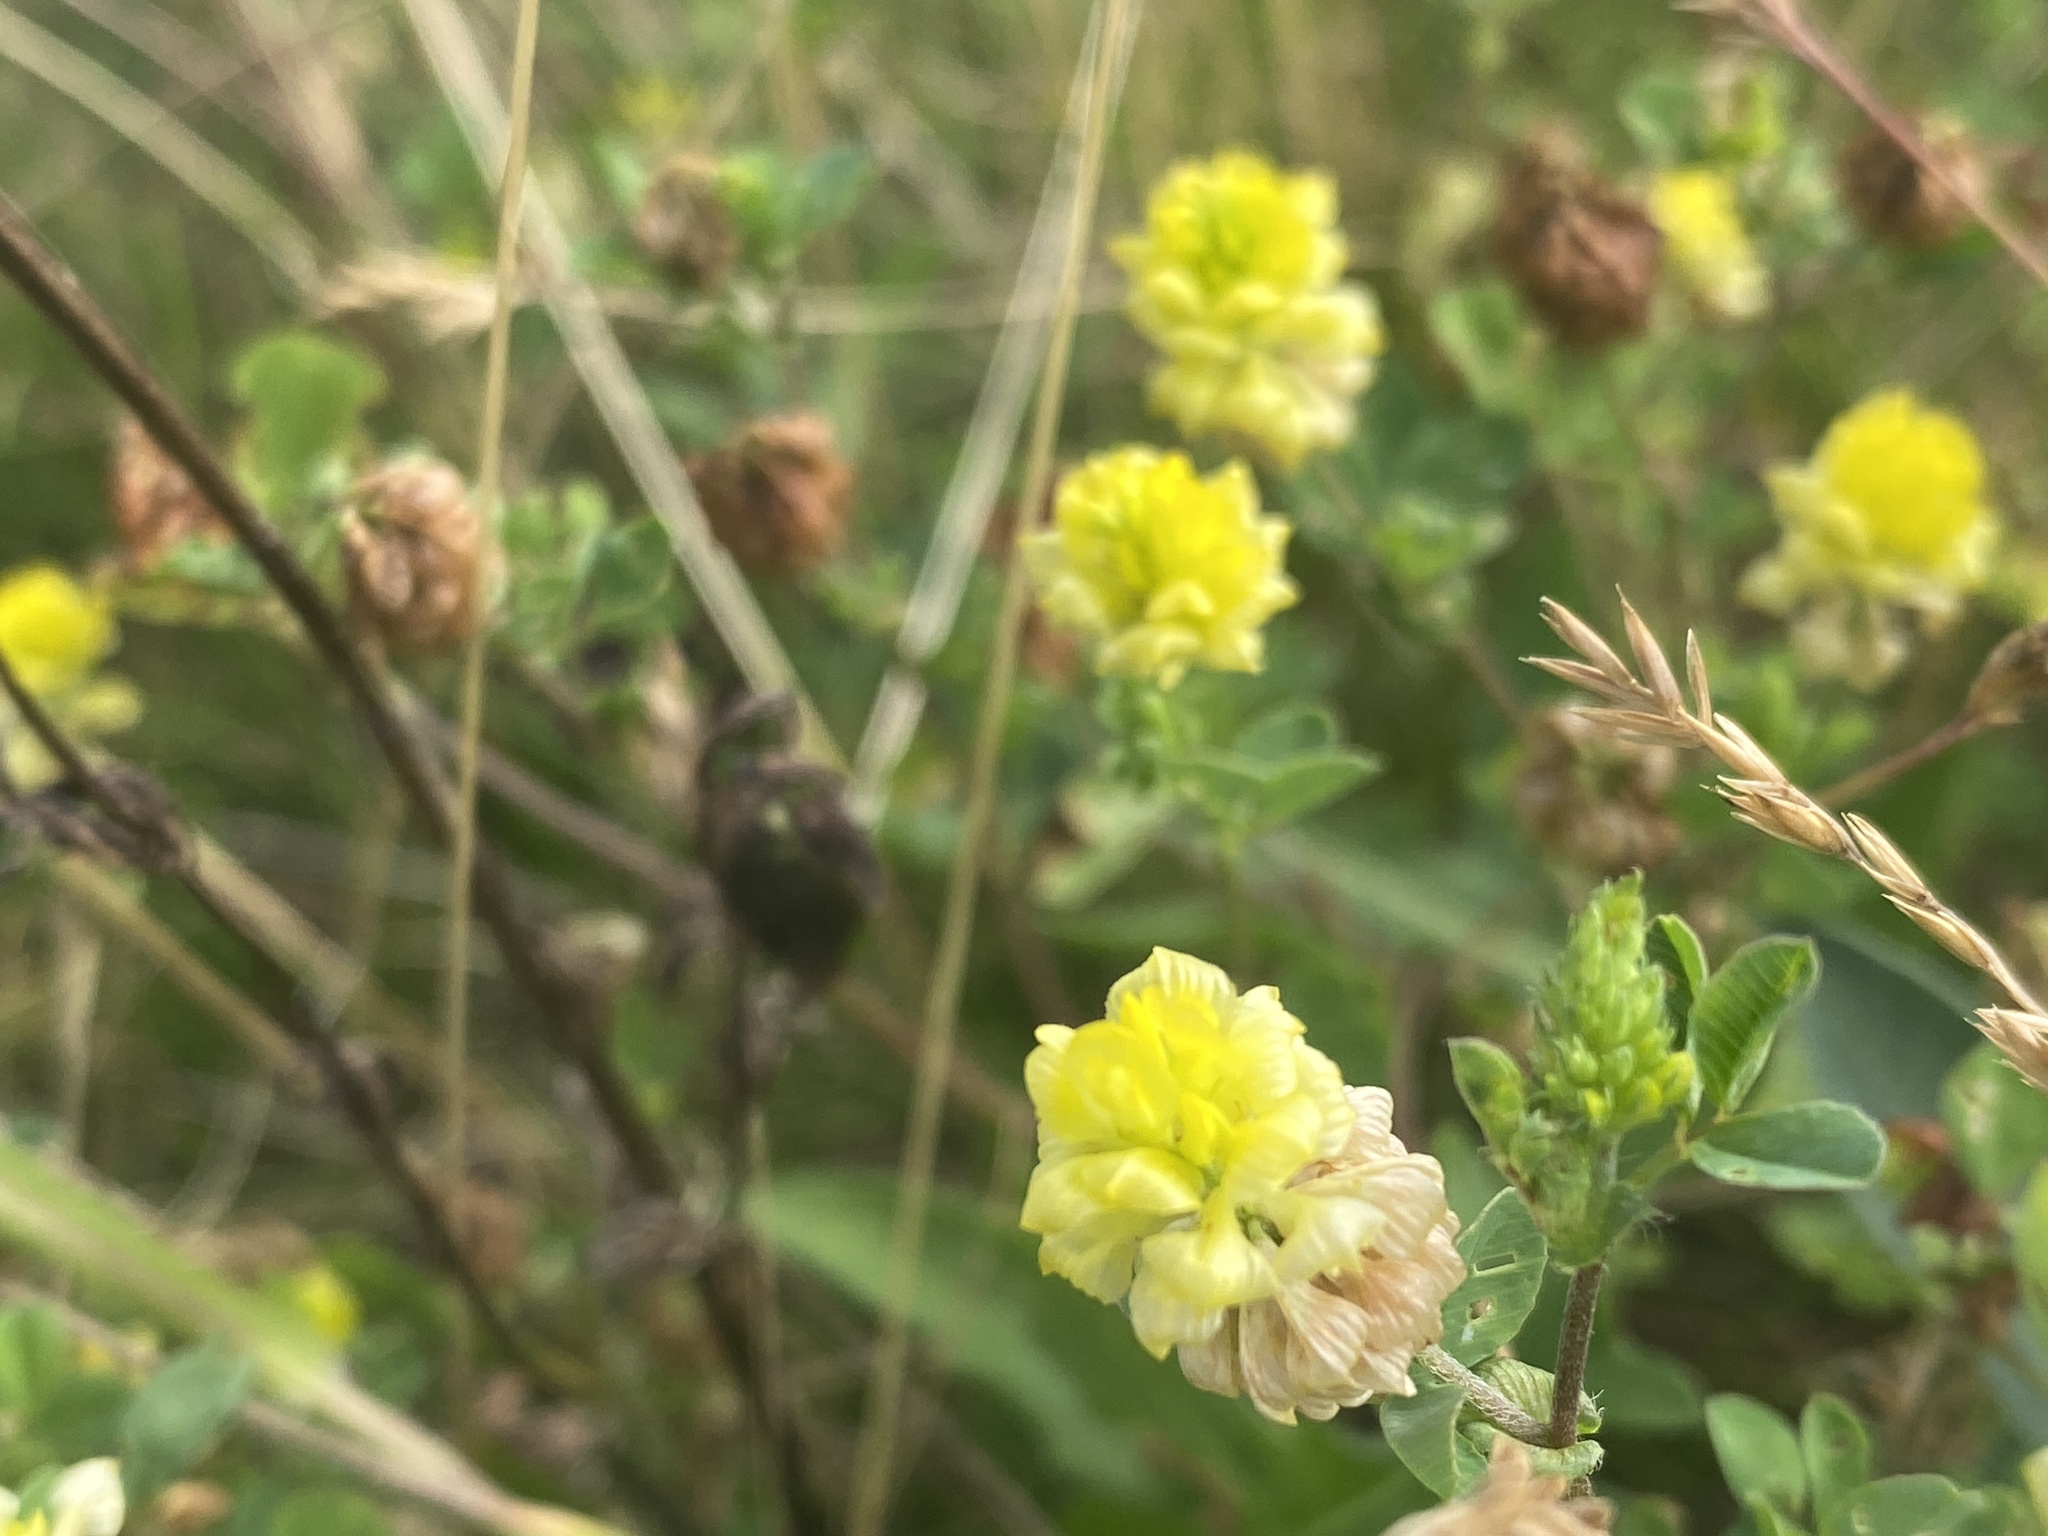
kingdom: Plantae
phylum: Tracheophyta
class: Magnoliopsida
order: Fabales
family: Fabaceae
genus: Trifolium
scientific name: Trifolium campestre
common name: Field clover
